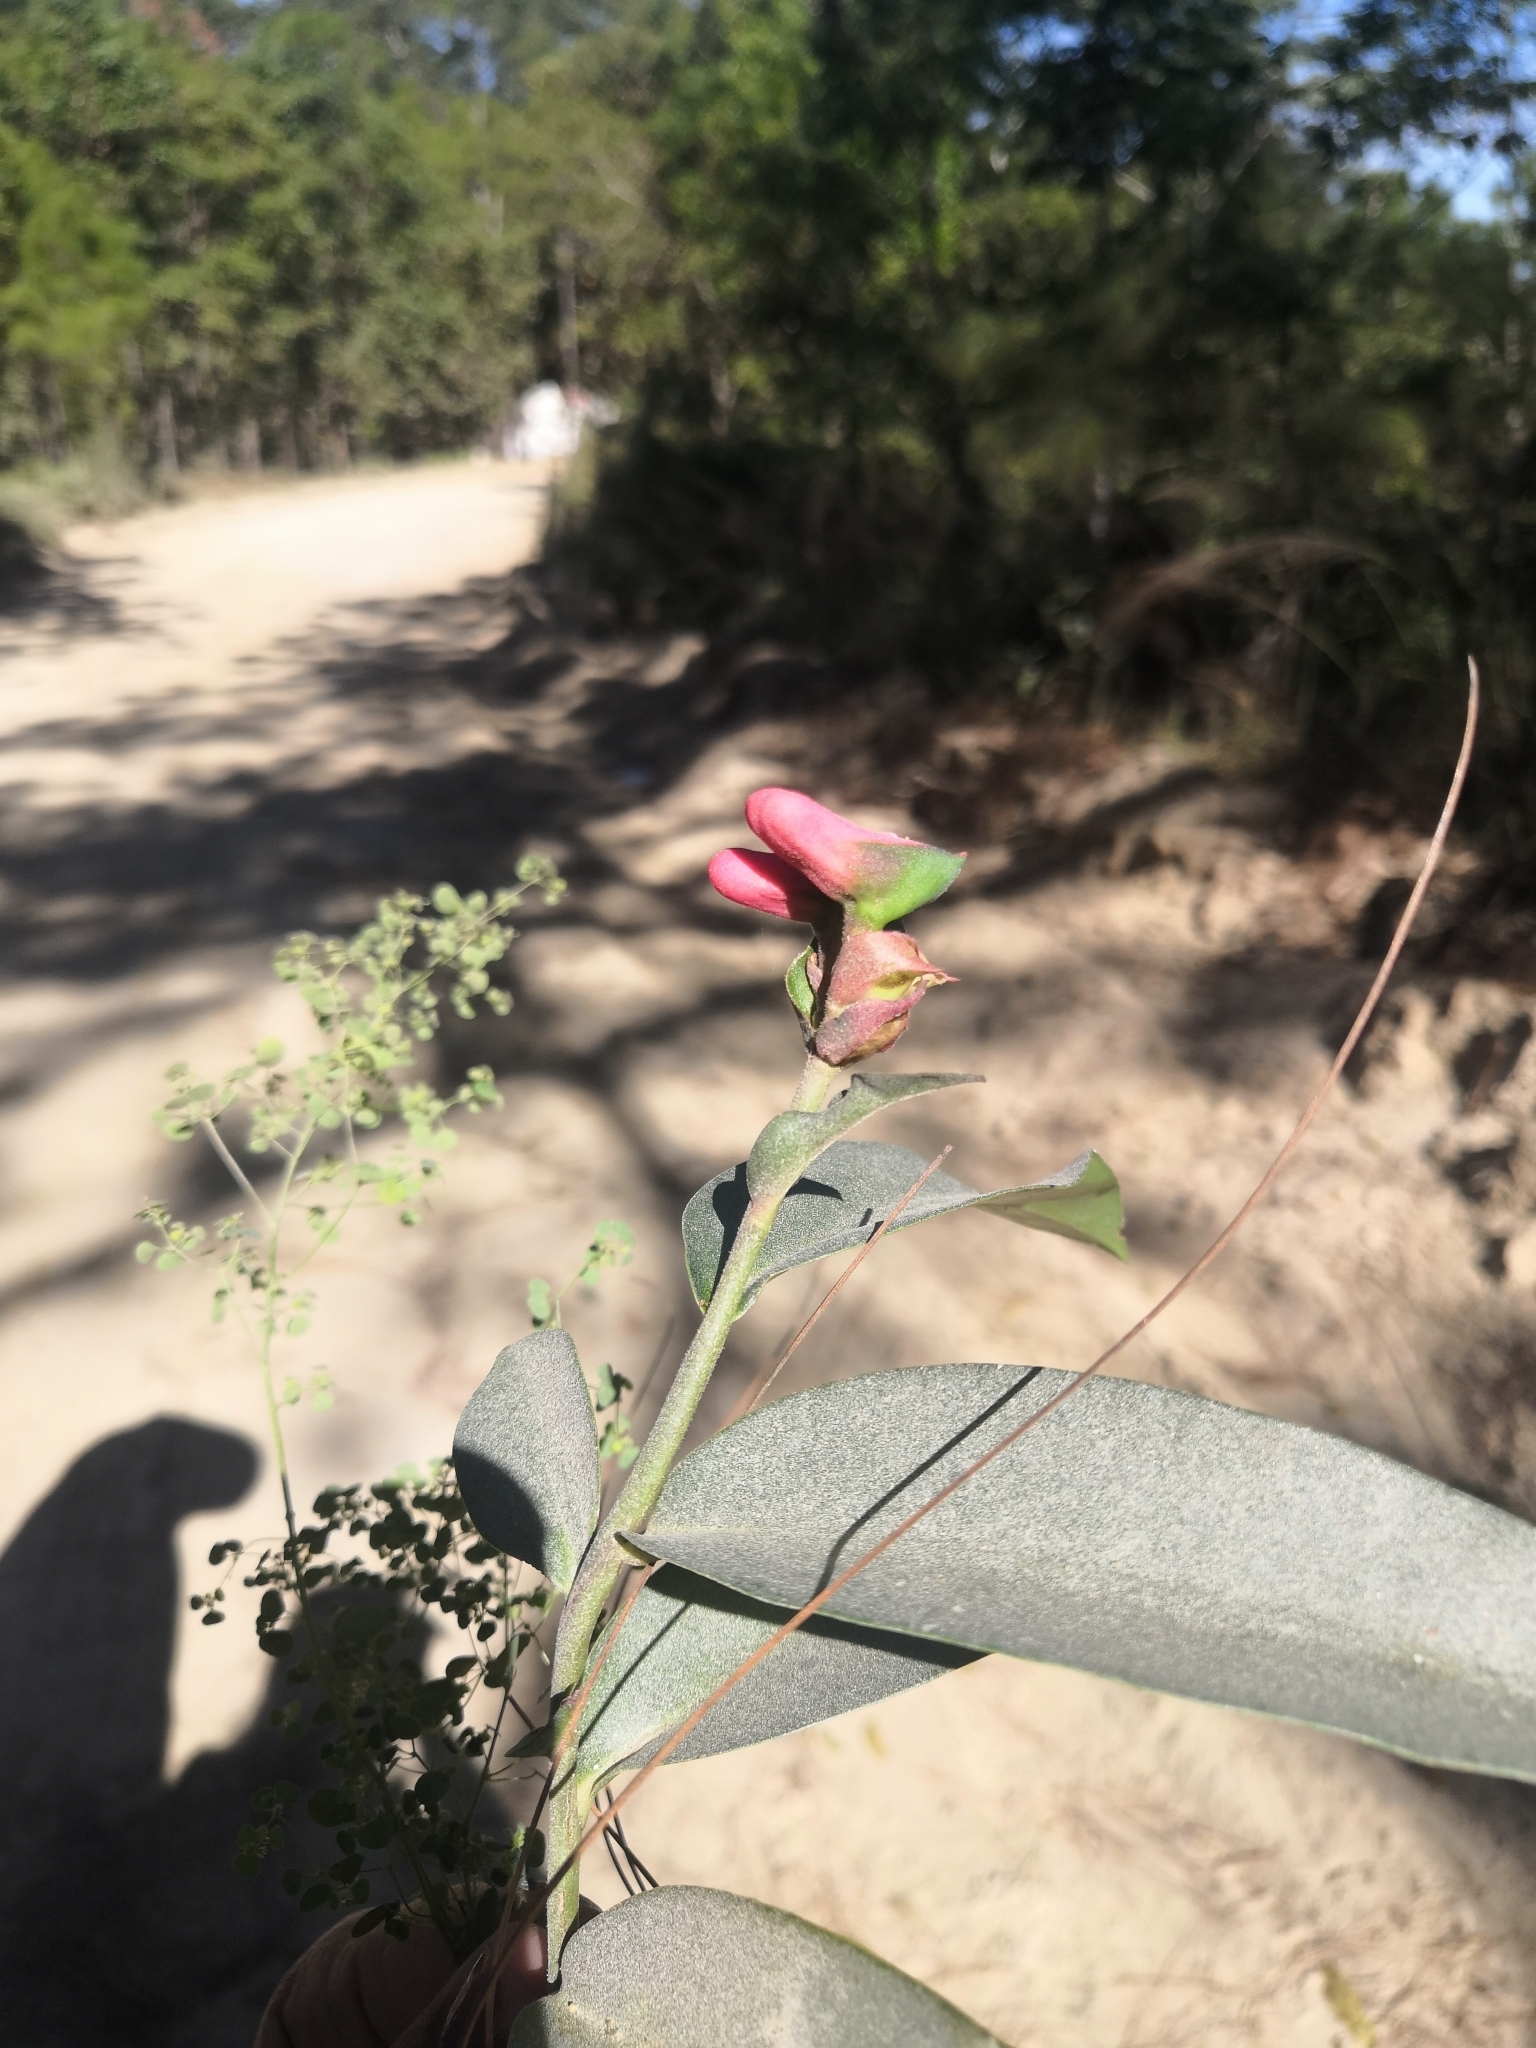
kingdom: Plantae
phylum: Tracheophyta
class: Magnoliopsida
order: Malpighiales
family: Euphorbiaceae
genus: Euphorbia
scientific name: Euphorbia peritropoides
